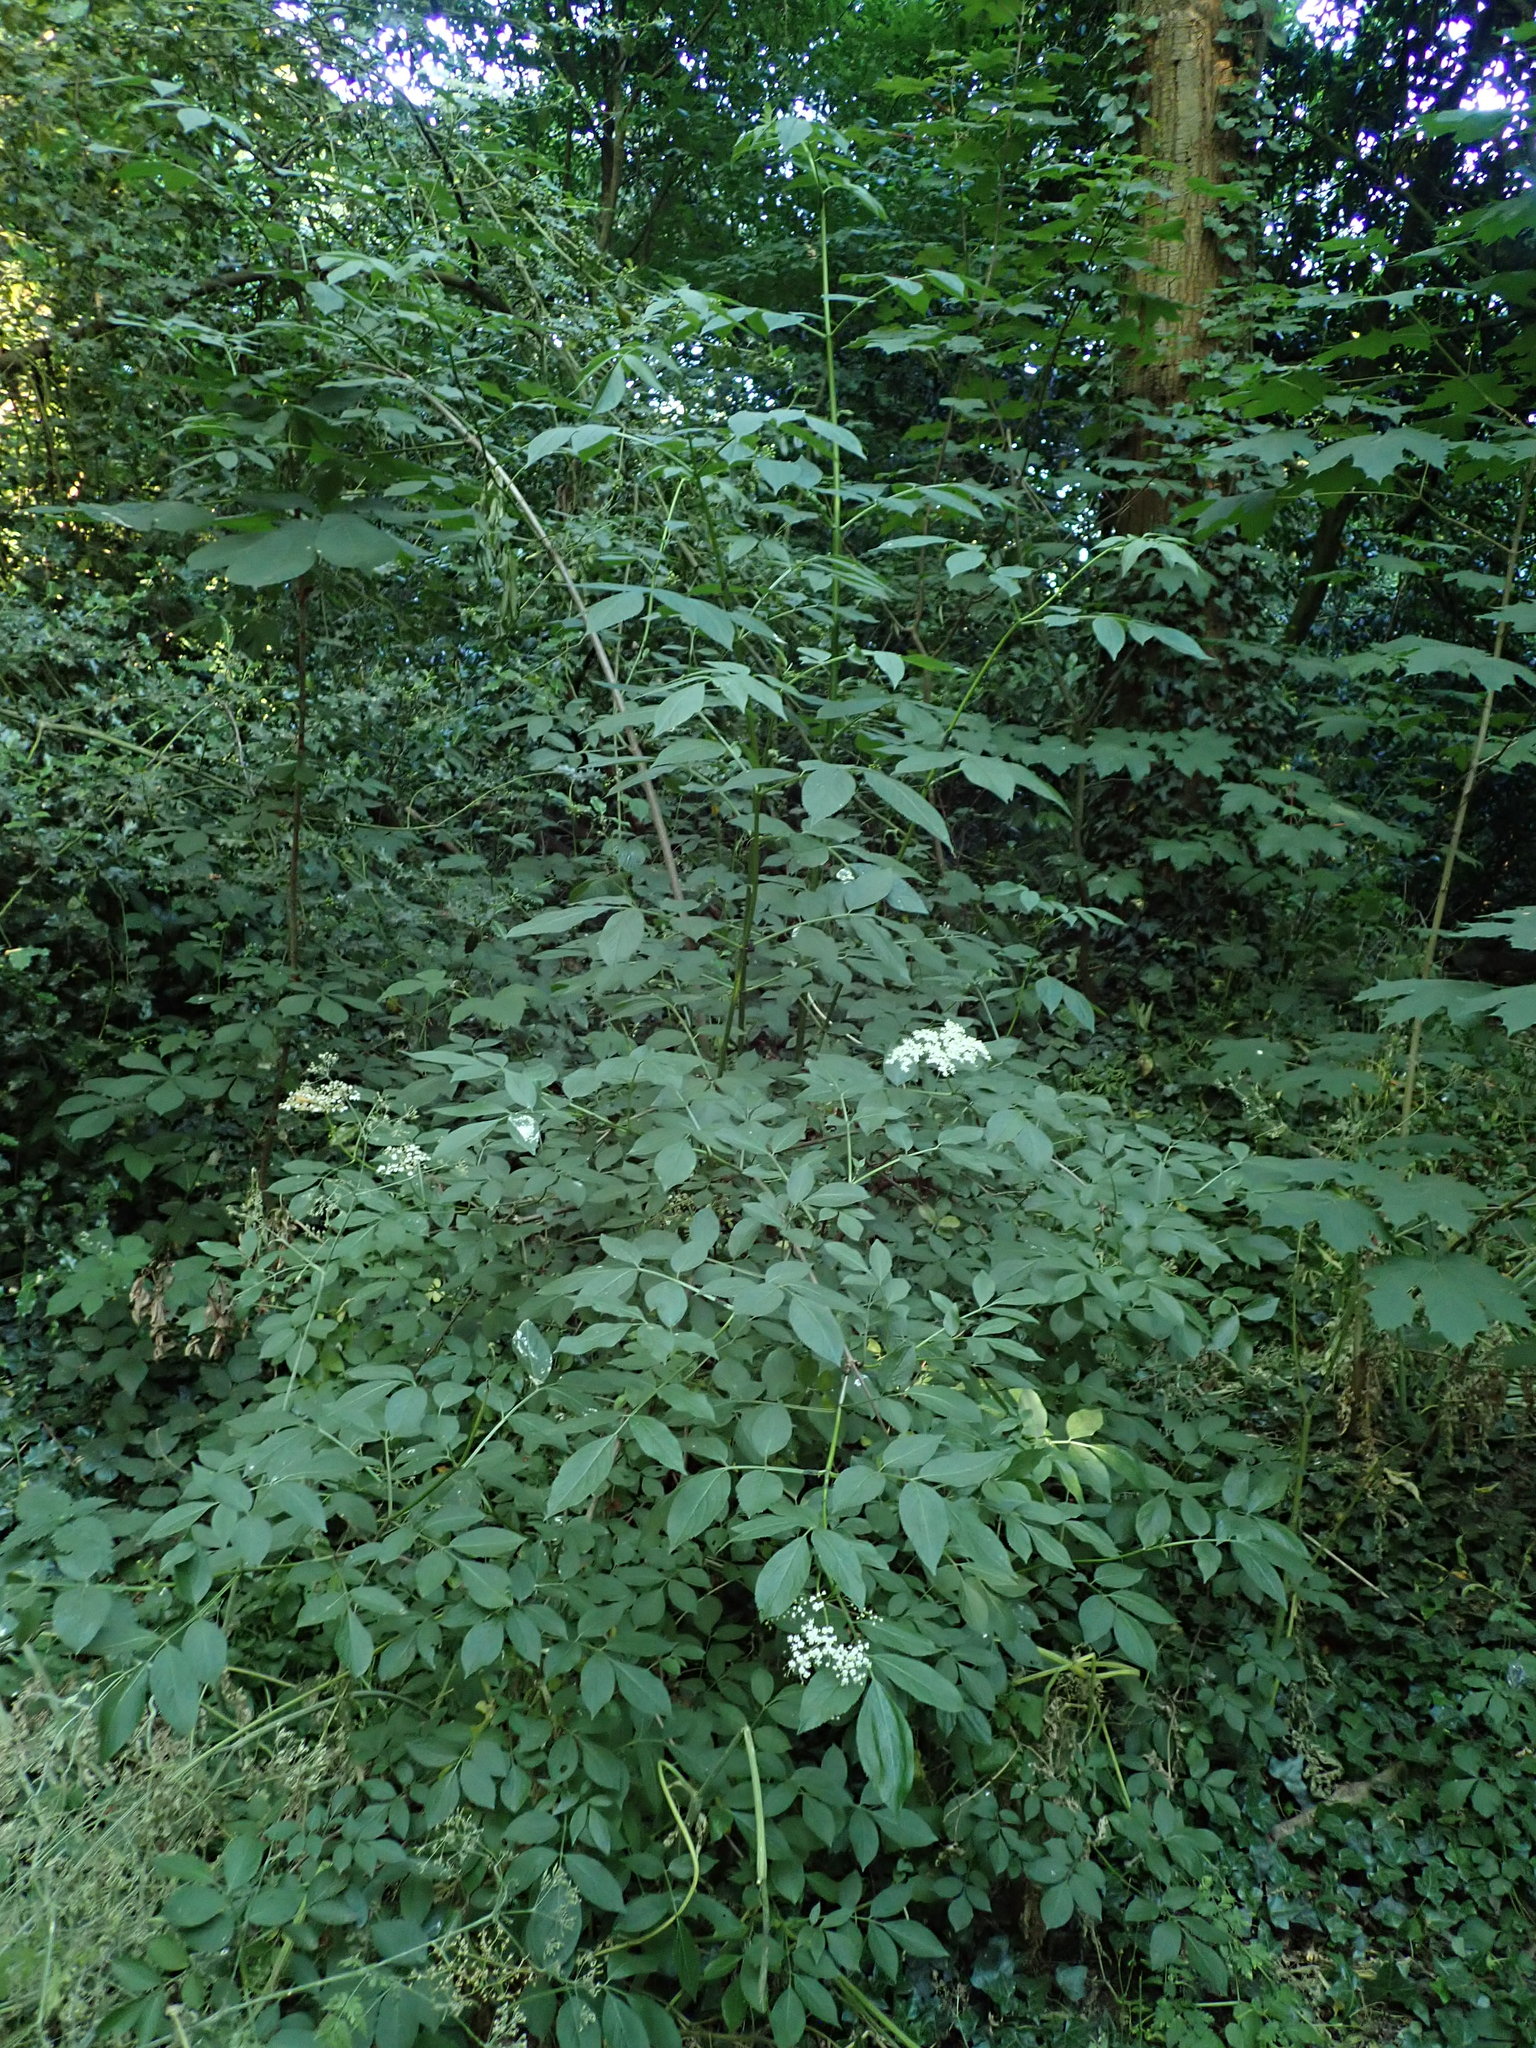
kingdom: Plantae
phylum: Tracheophyta
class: Magnoliopsida
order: Dipsacales
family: Viburnaceae
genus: Sambucus
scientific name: Sambucus nigra
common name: Elder
